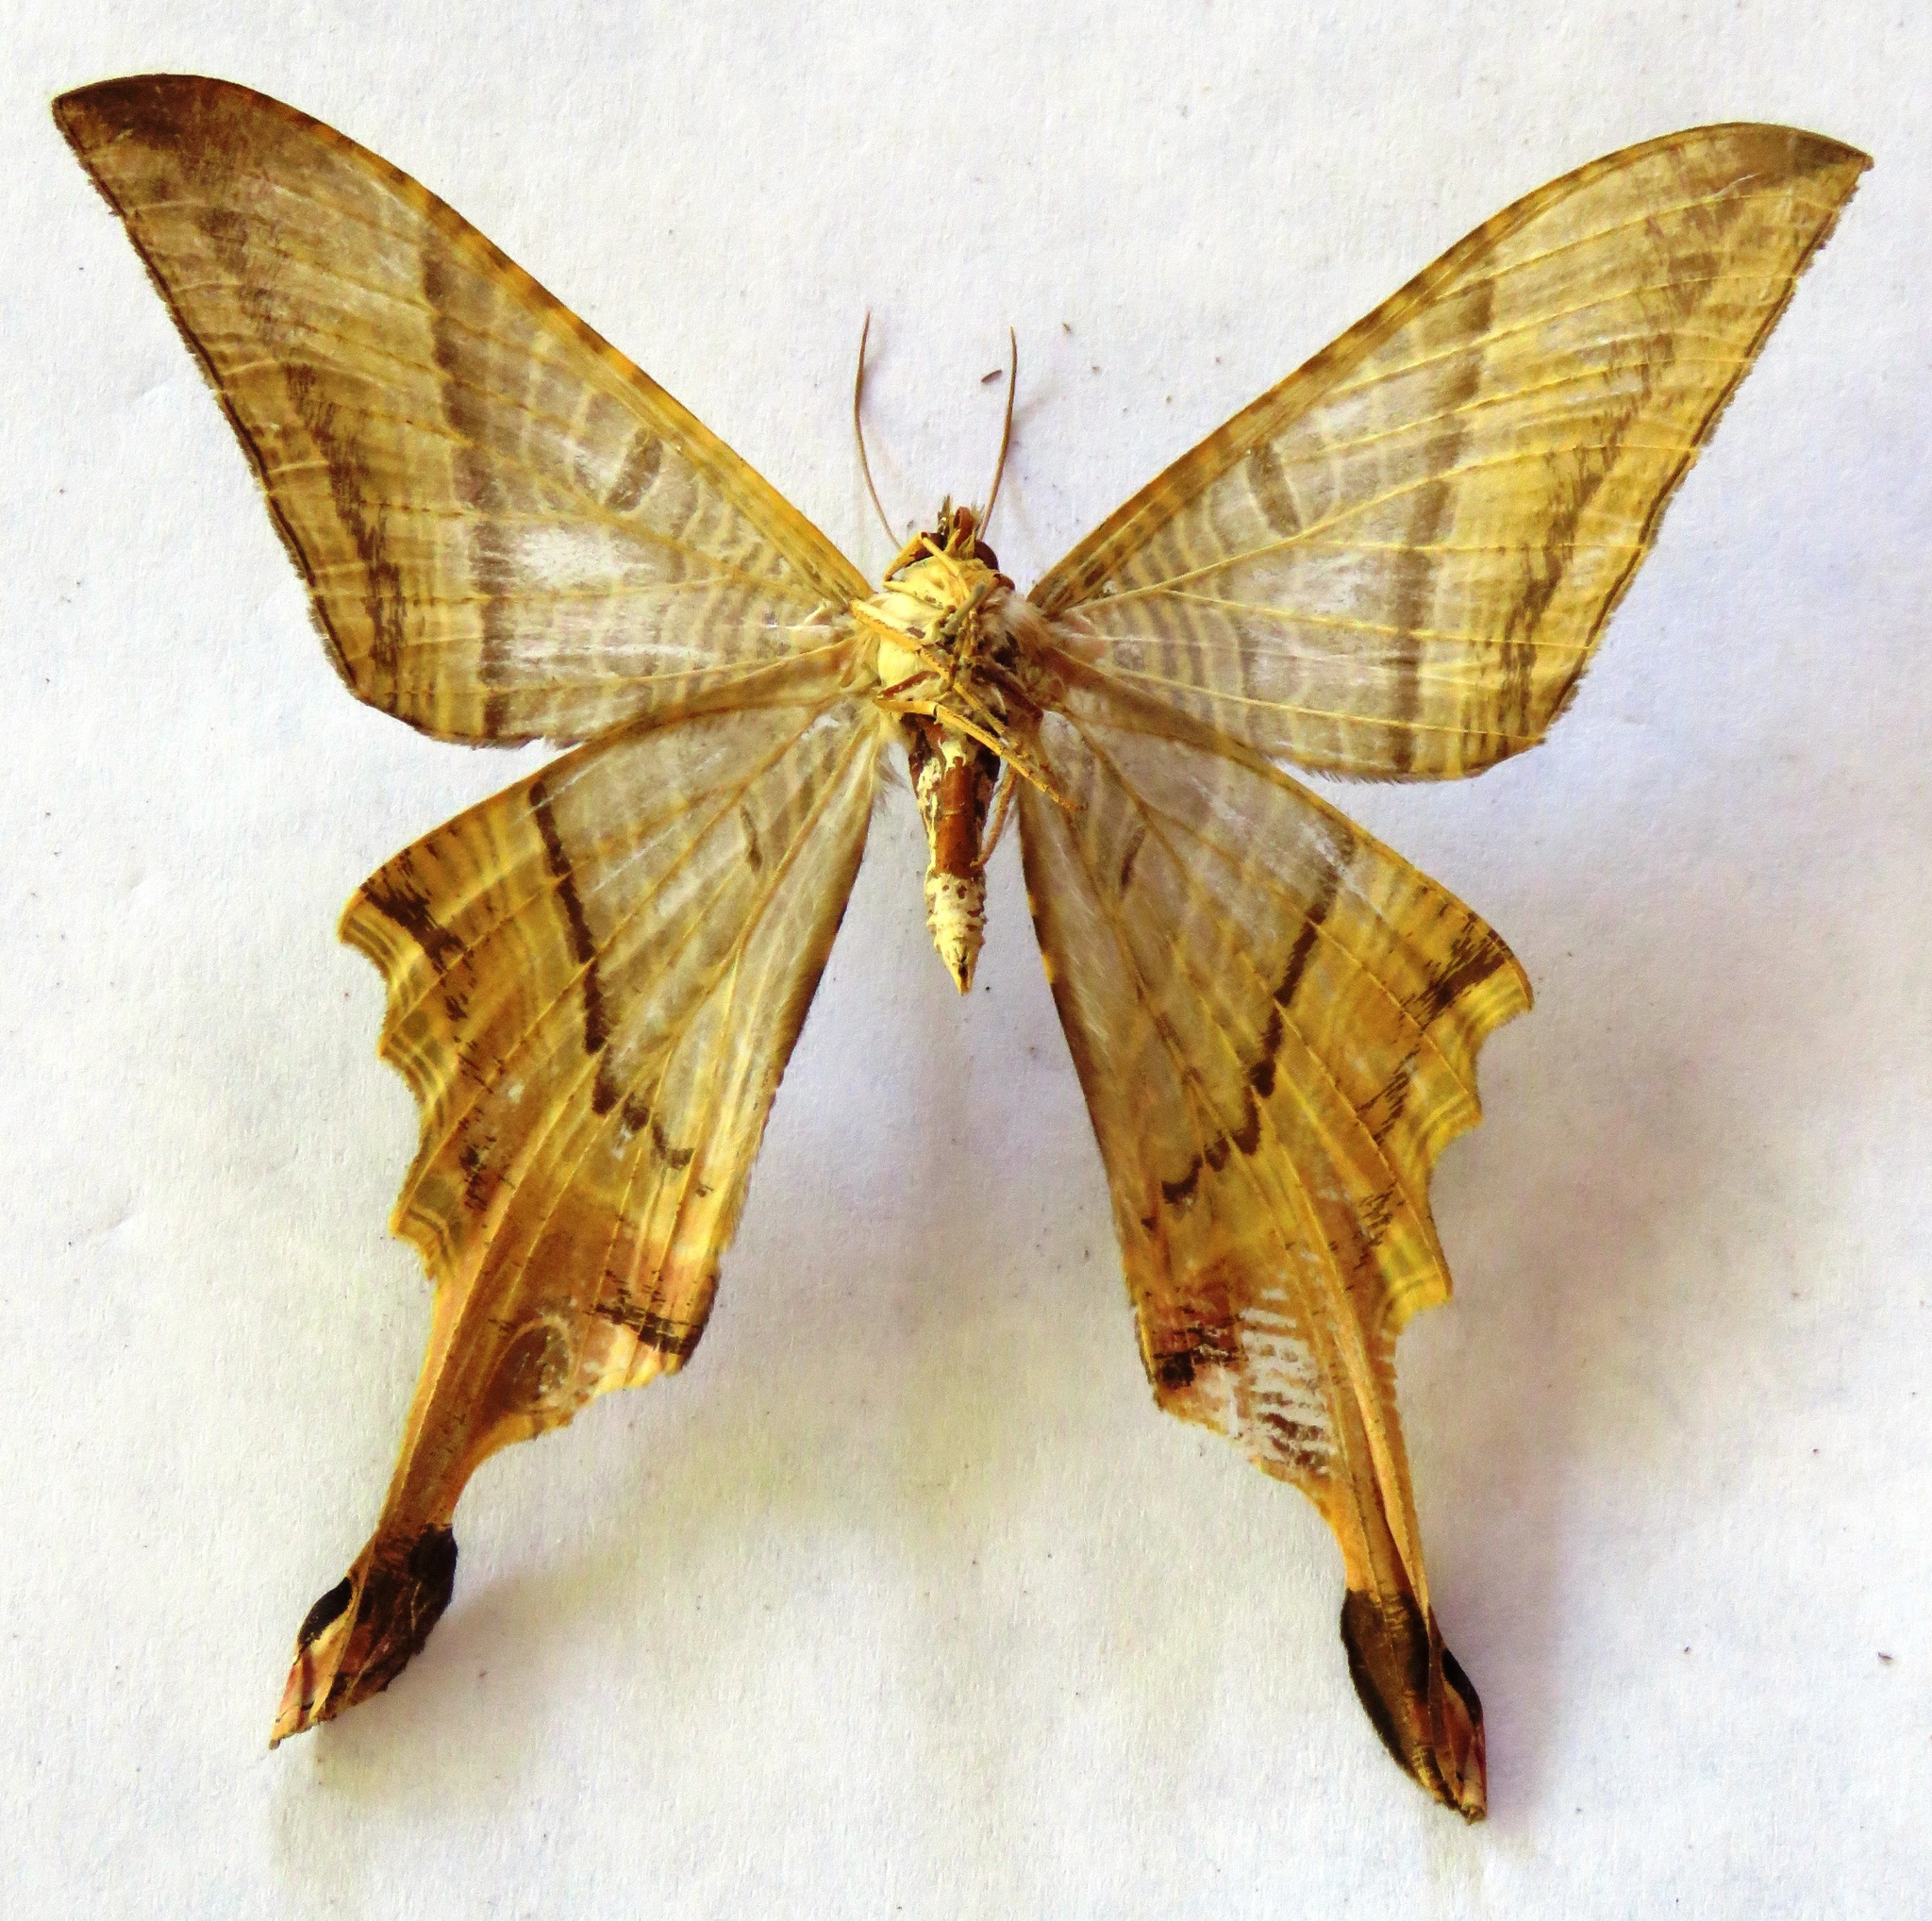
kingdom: Animalia
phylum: Arthropoda
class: Insecta
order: Lepidoptera
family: Sematuridae
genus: Nothus
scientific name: Nothus lunus
